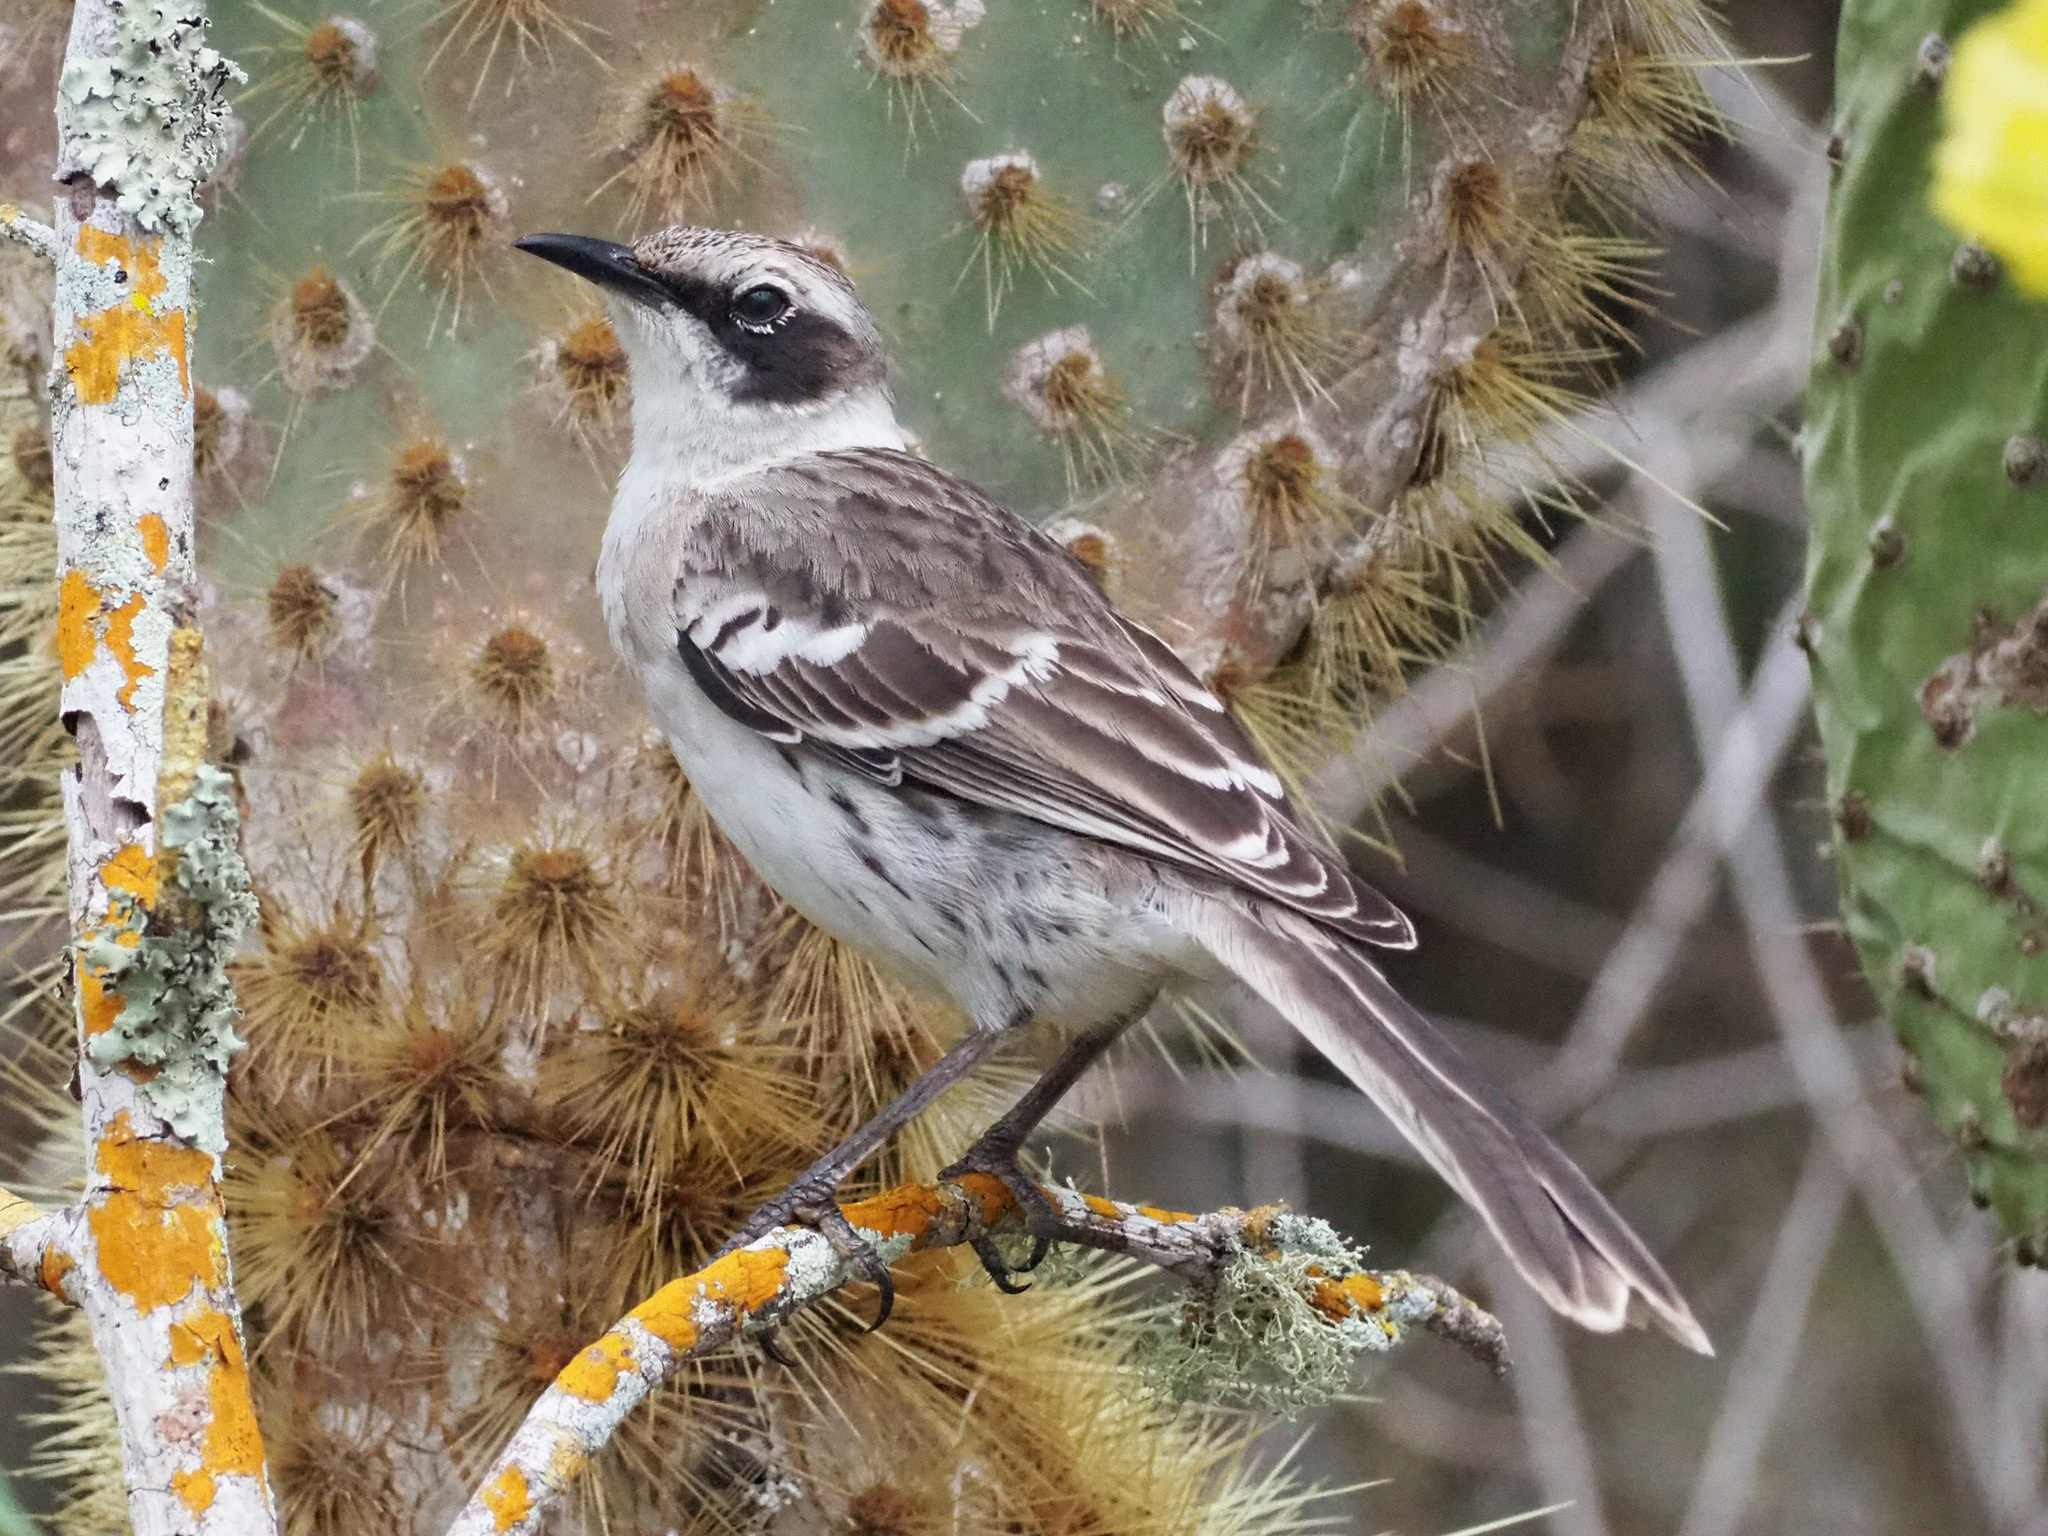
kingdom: Animalia
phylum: Chordata
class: Aves
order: Passeriformes
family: Mimidae
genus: Mimus
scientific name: Mimus parvulus
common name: Galapagos mockingbird
